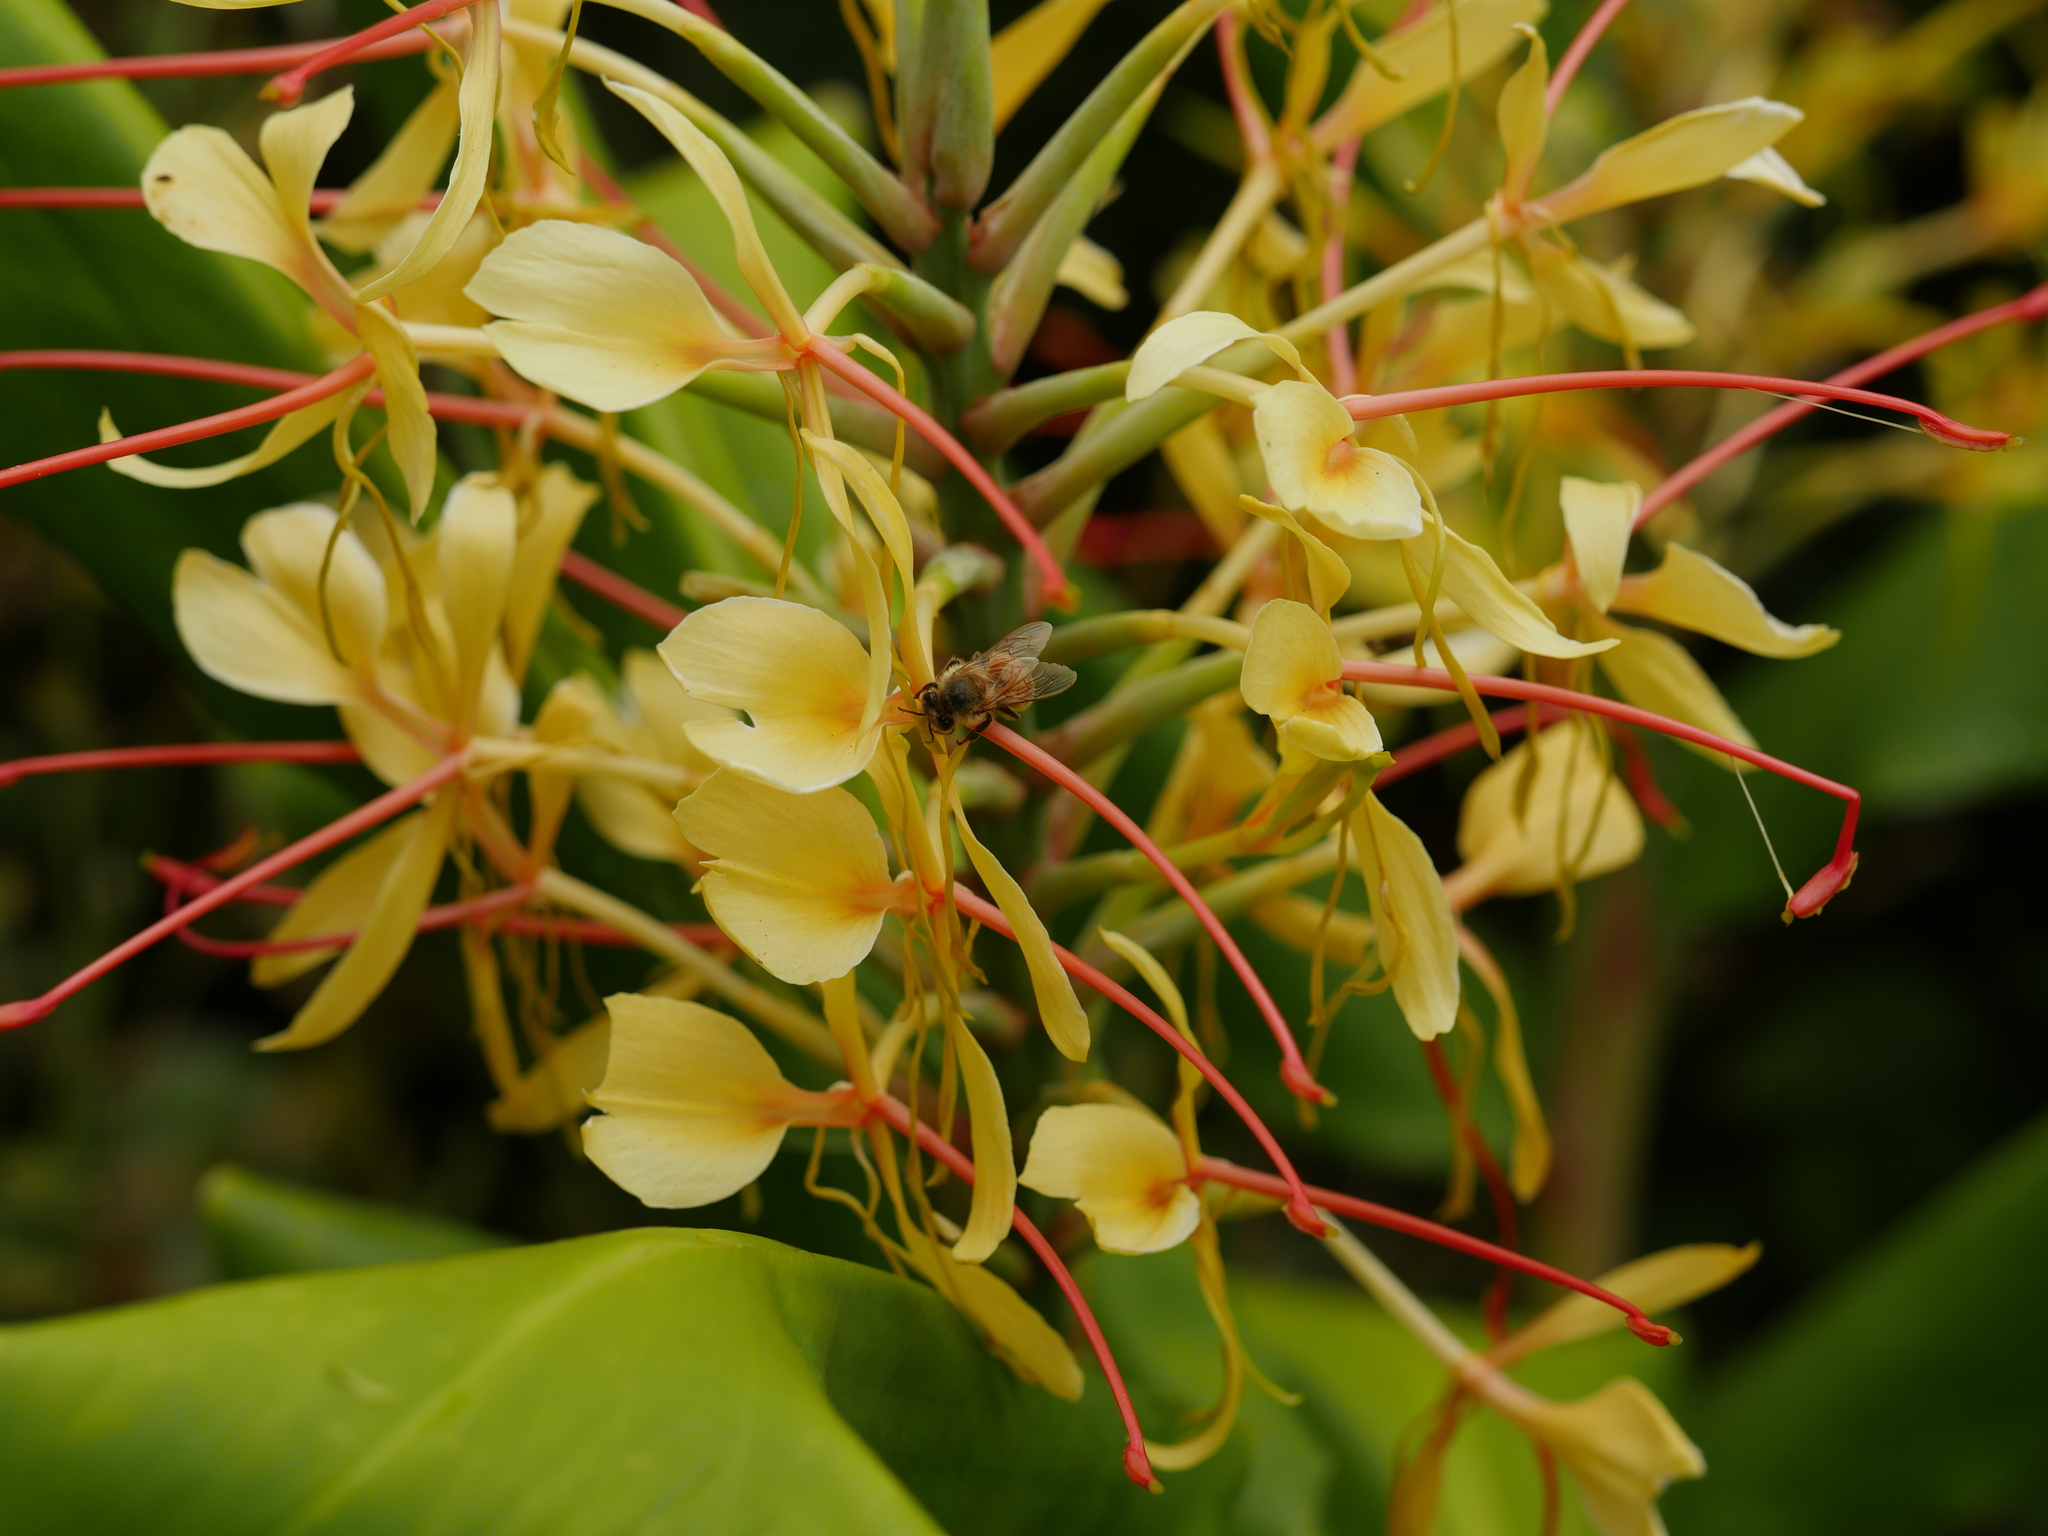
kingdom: Plantae
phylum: Tracheophyta
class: Liliopsida
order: Zingiberales
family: Zingiberaceae
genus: Hedychium
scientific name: Hedychium gardnerianum
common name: Himalayan ginger
